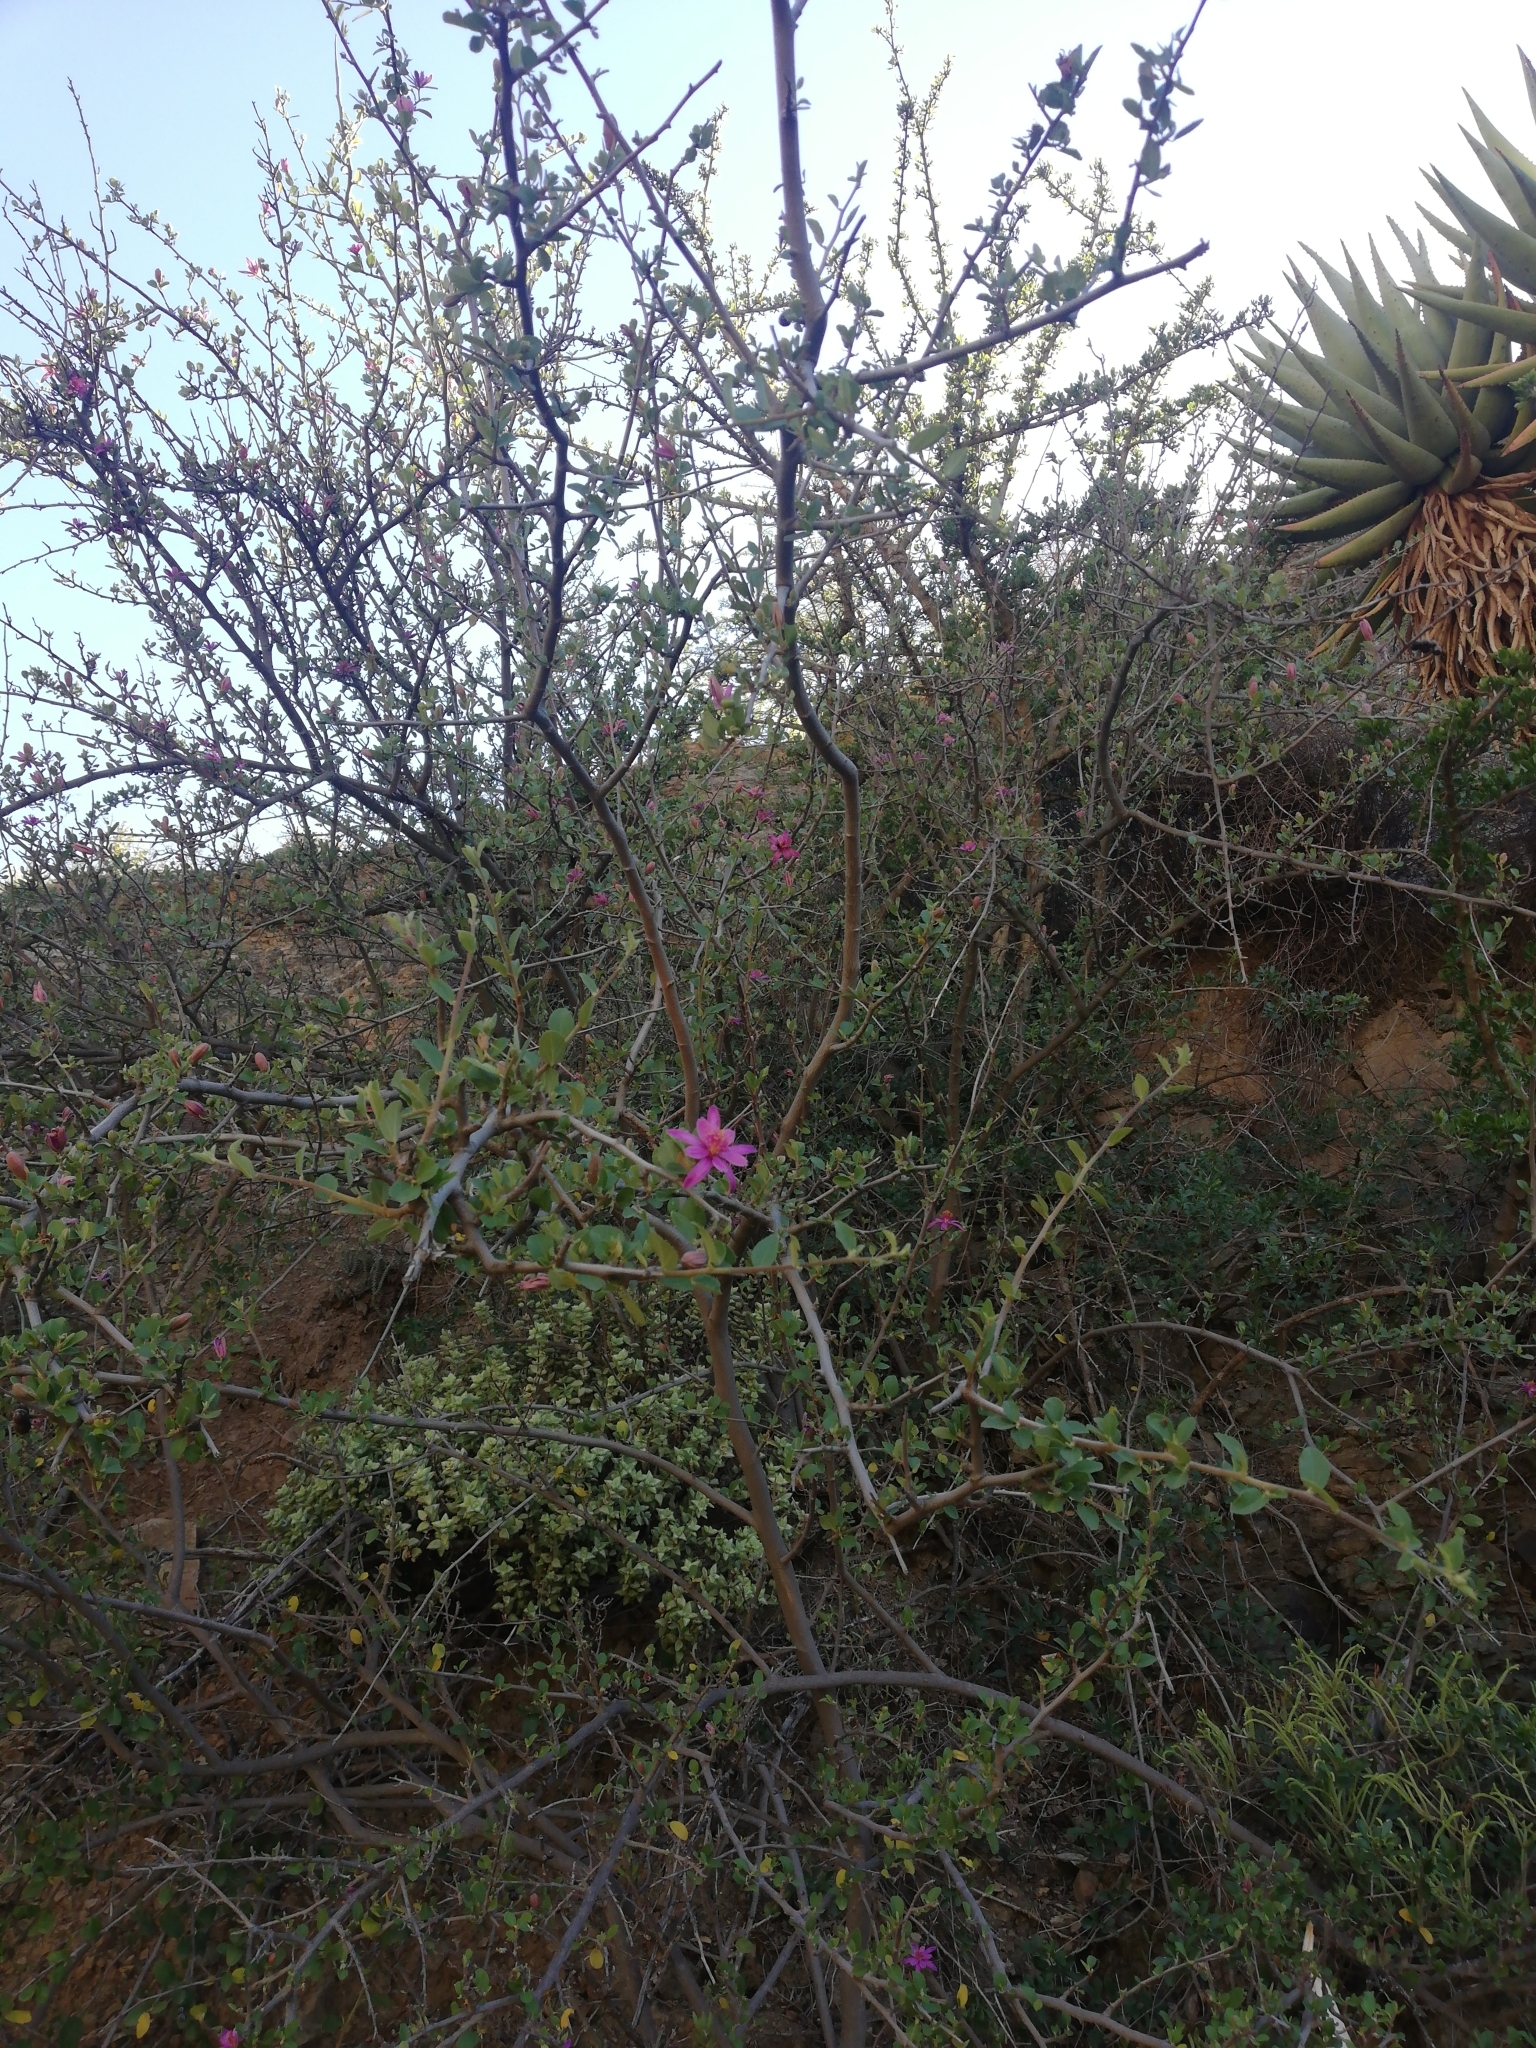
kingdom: Plantae
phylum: Tracheophyta
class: Magnoliopsida
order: Malvales
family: Malvaceae
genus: Grewia
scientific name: Grewia robusta
